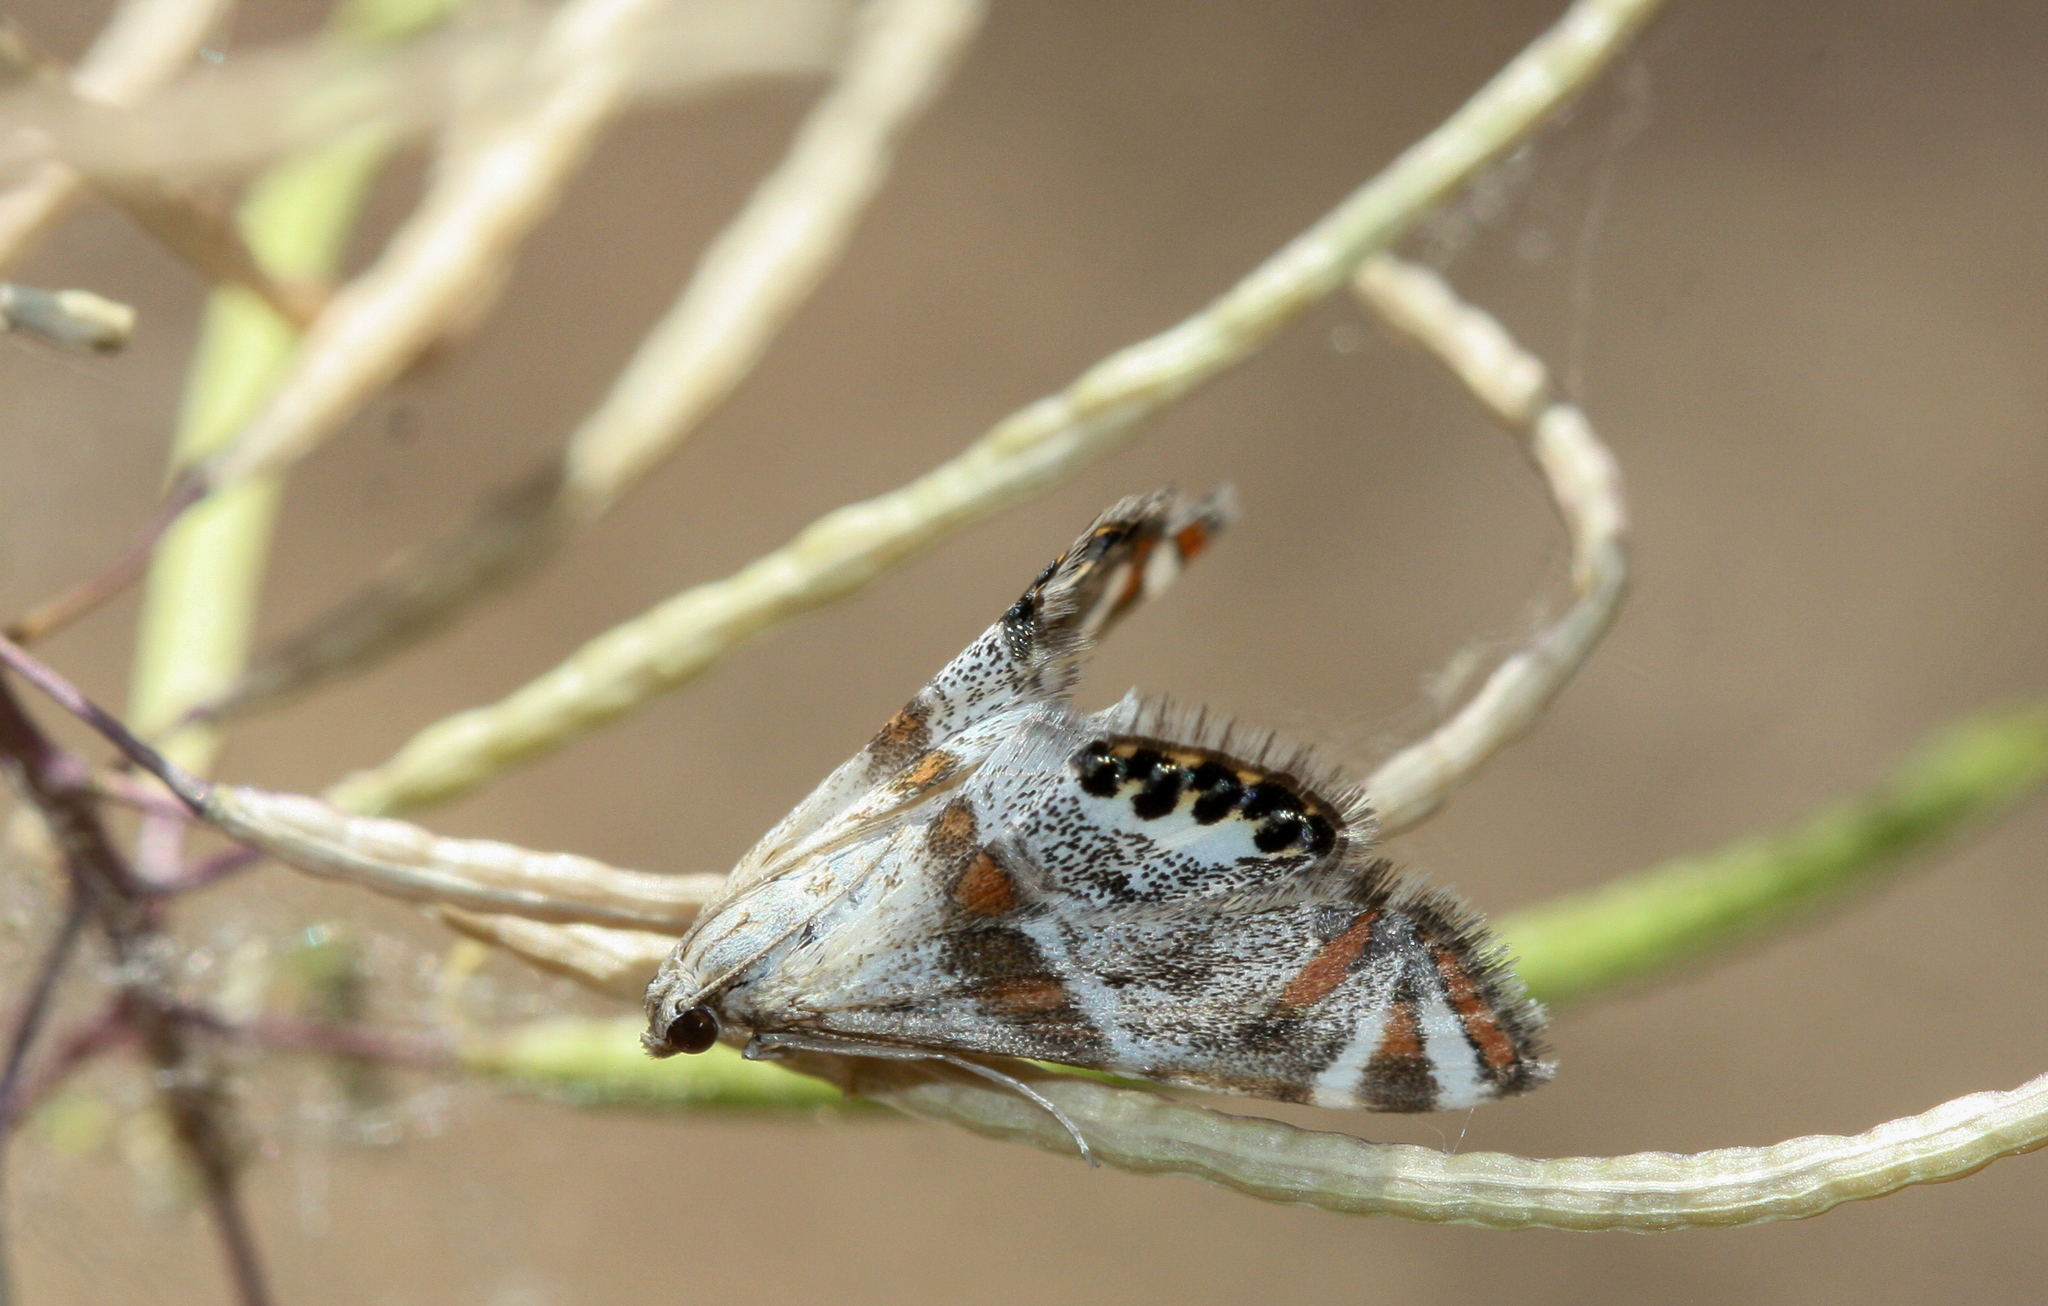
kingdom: Animalia
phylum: Arthropoda
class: Insecta
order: Lepidoptera
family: Crambidae
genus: Petrophila
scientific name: Petrophila jaliscalis
